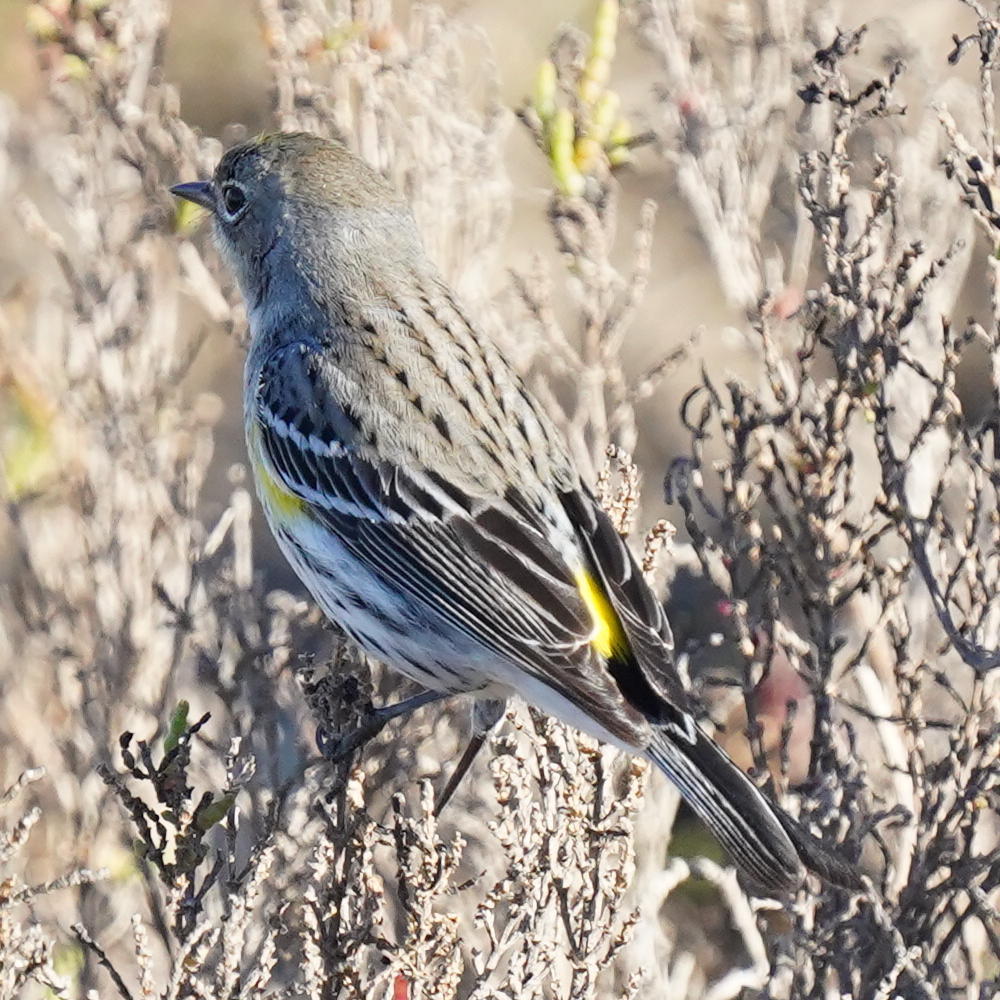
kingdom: Animalia
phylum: Chordata
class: Aves
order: Passeriformes
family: Parulidae
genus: Setophaga
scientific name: Setophaga coronata
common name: Myrtle warbler
